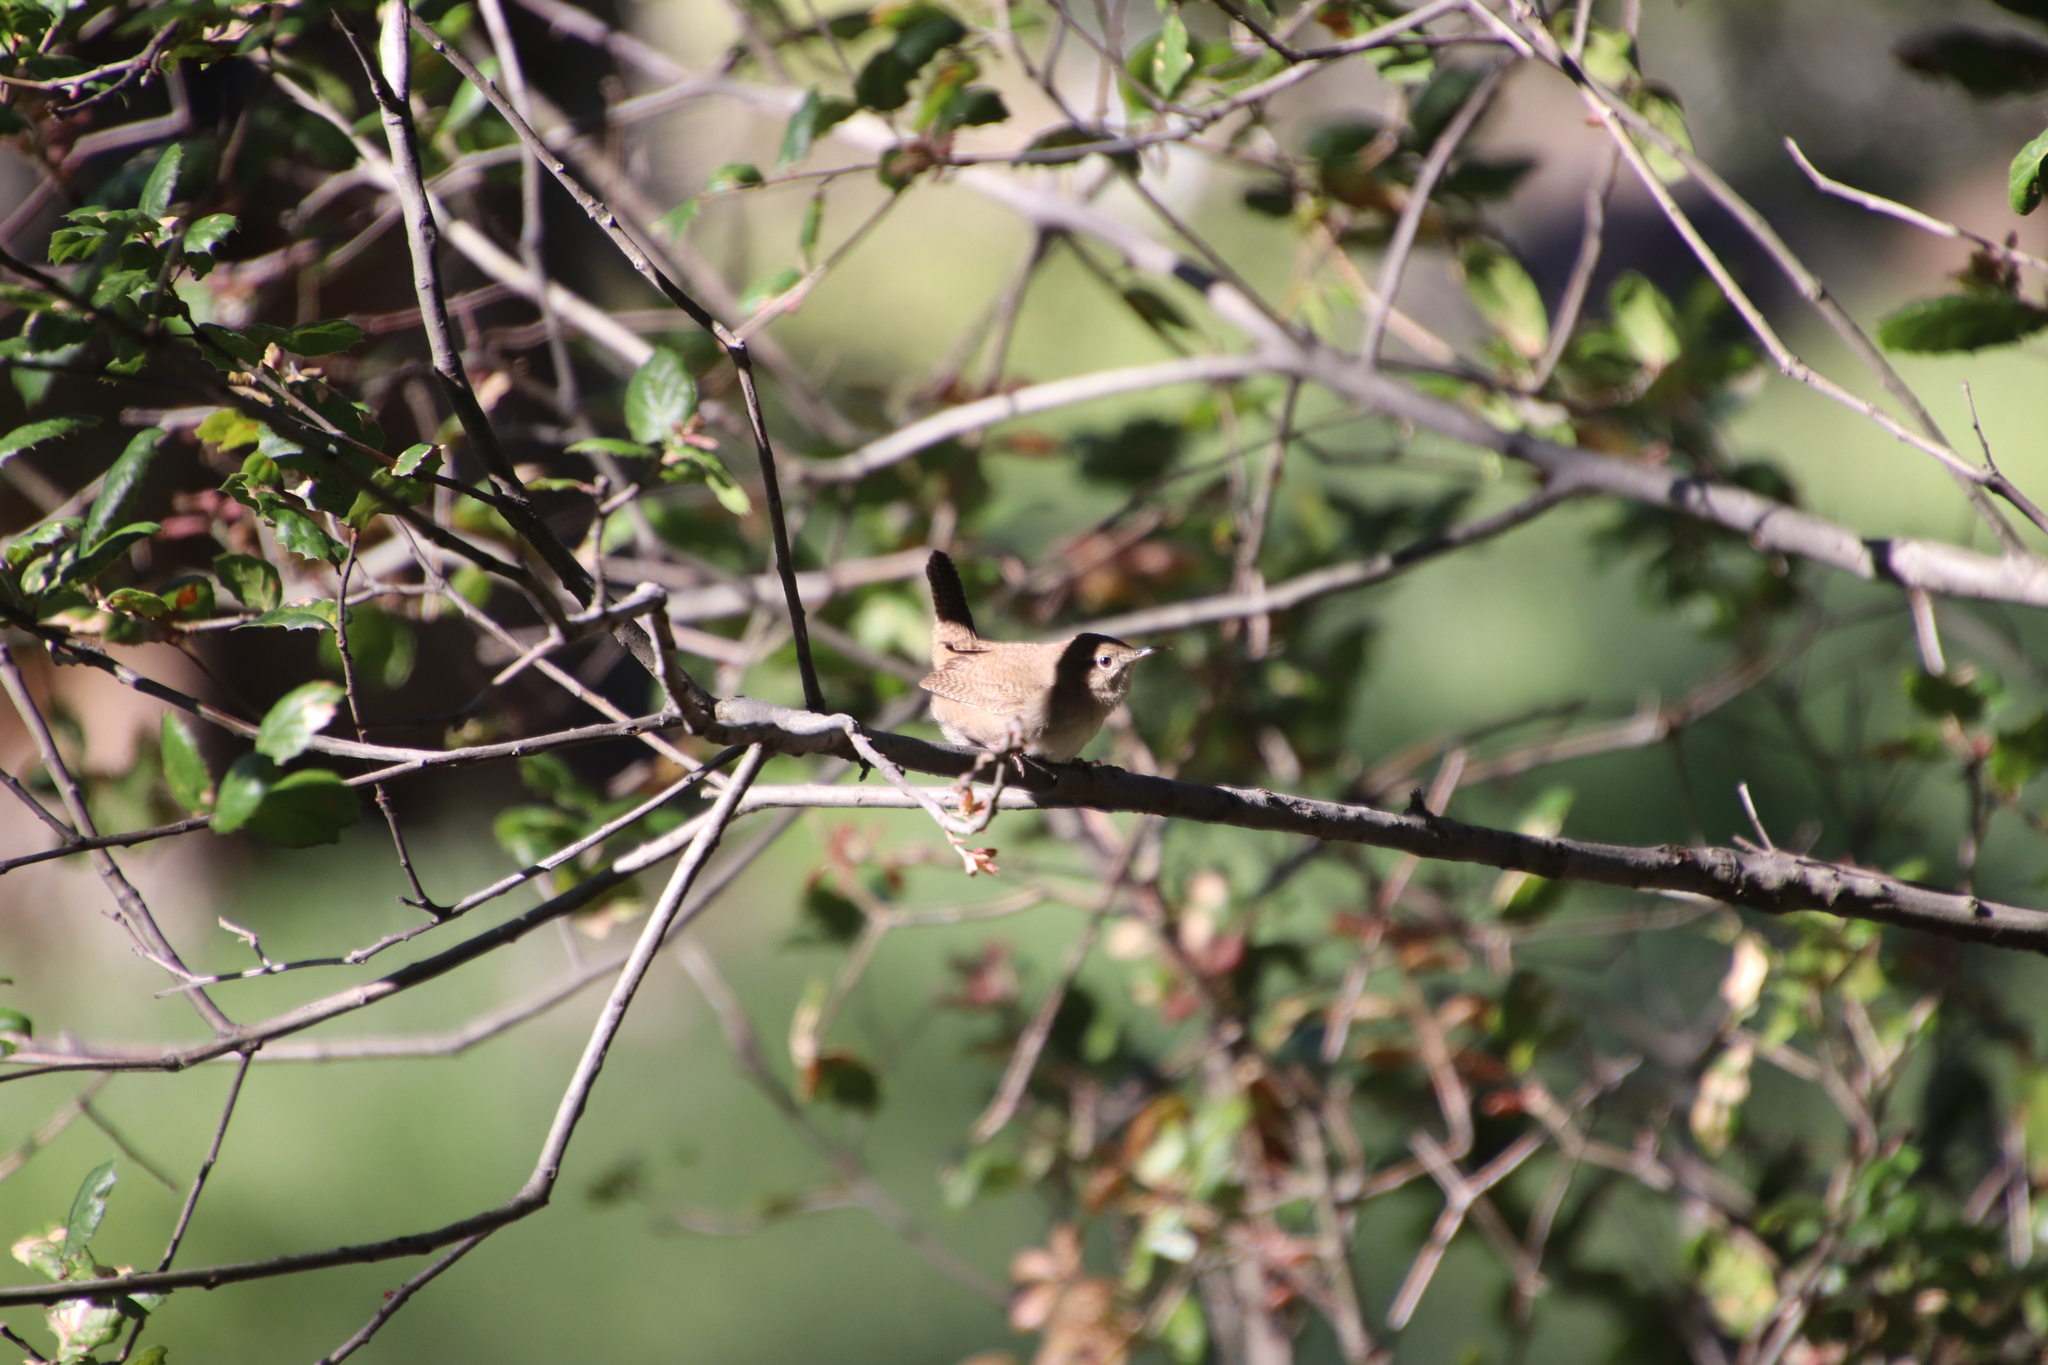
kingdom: Animalia
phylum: Chordata
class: Aves
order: Passeriformes
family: Troglodytidae
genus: Troglodytes
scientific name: Troglodytes aedon
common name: House wren
